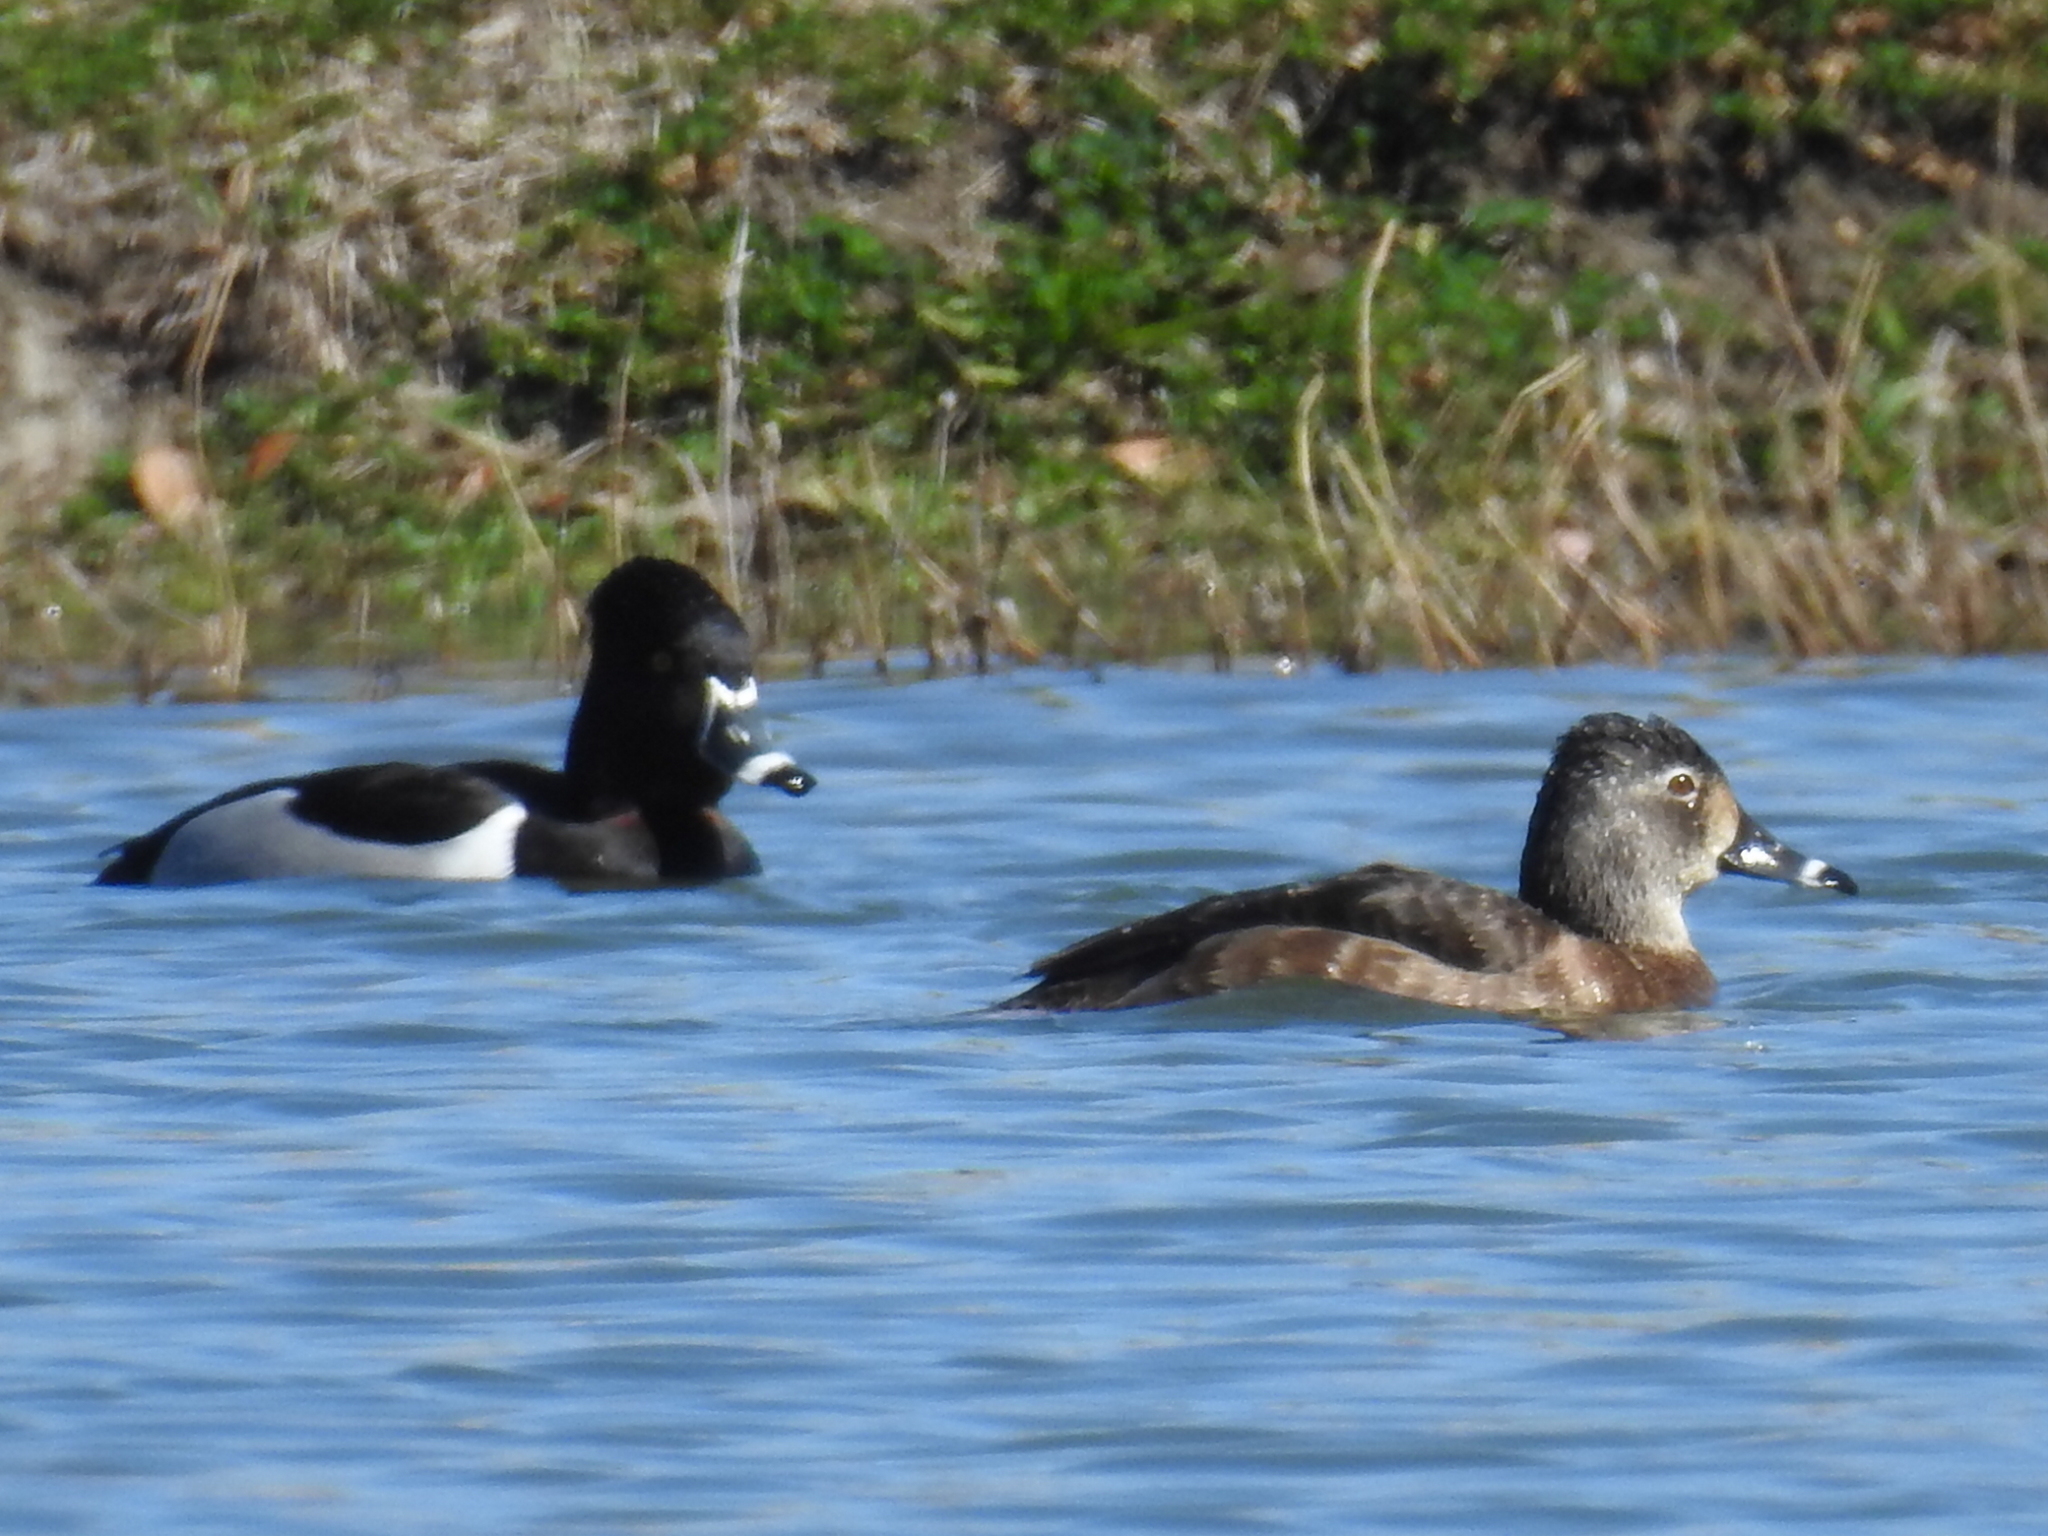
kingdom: Animalia
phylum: Chordata
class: Aves
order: Anseriformes
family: Anatidae
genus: Aythya
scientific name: Aythya collaris
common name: Ring-necked duck
